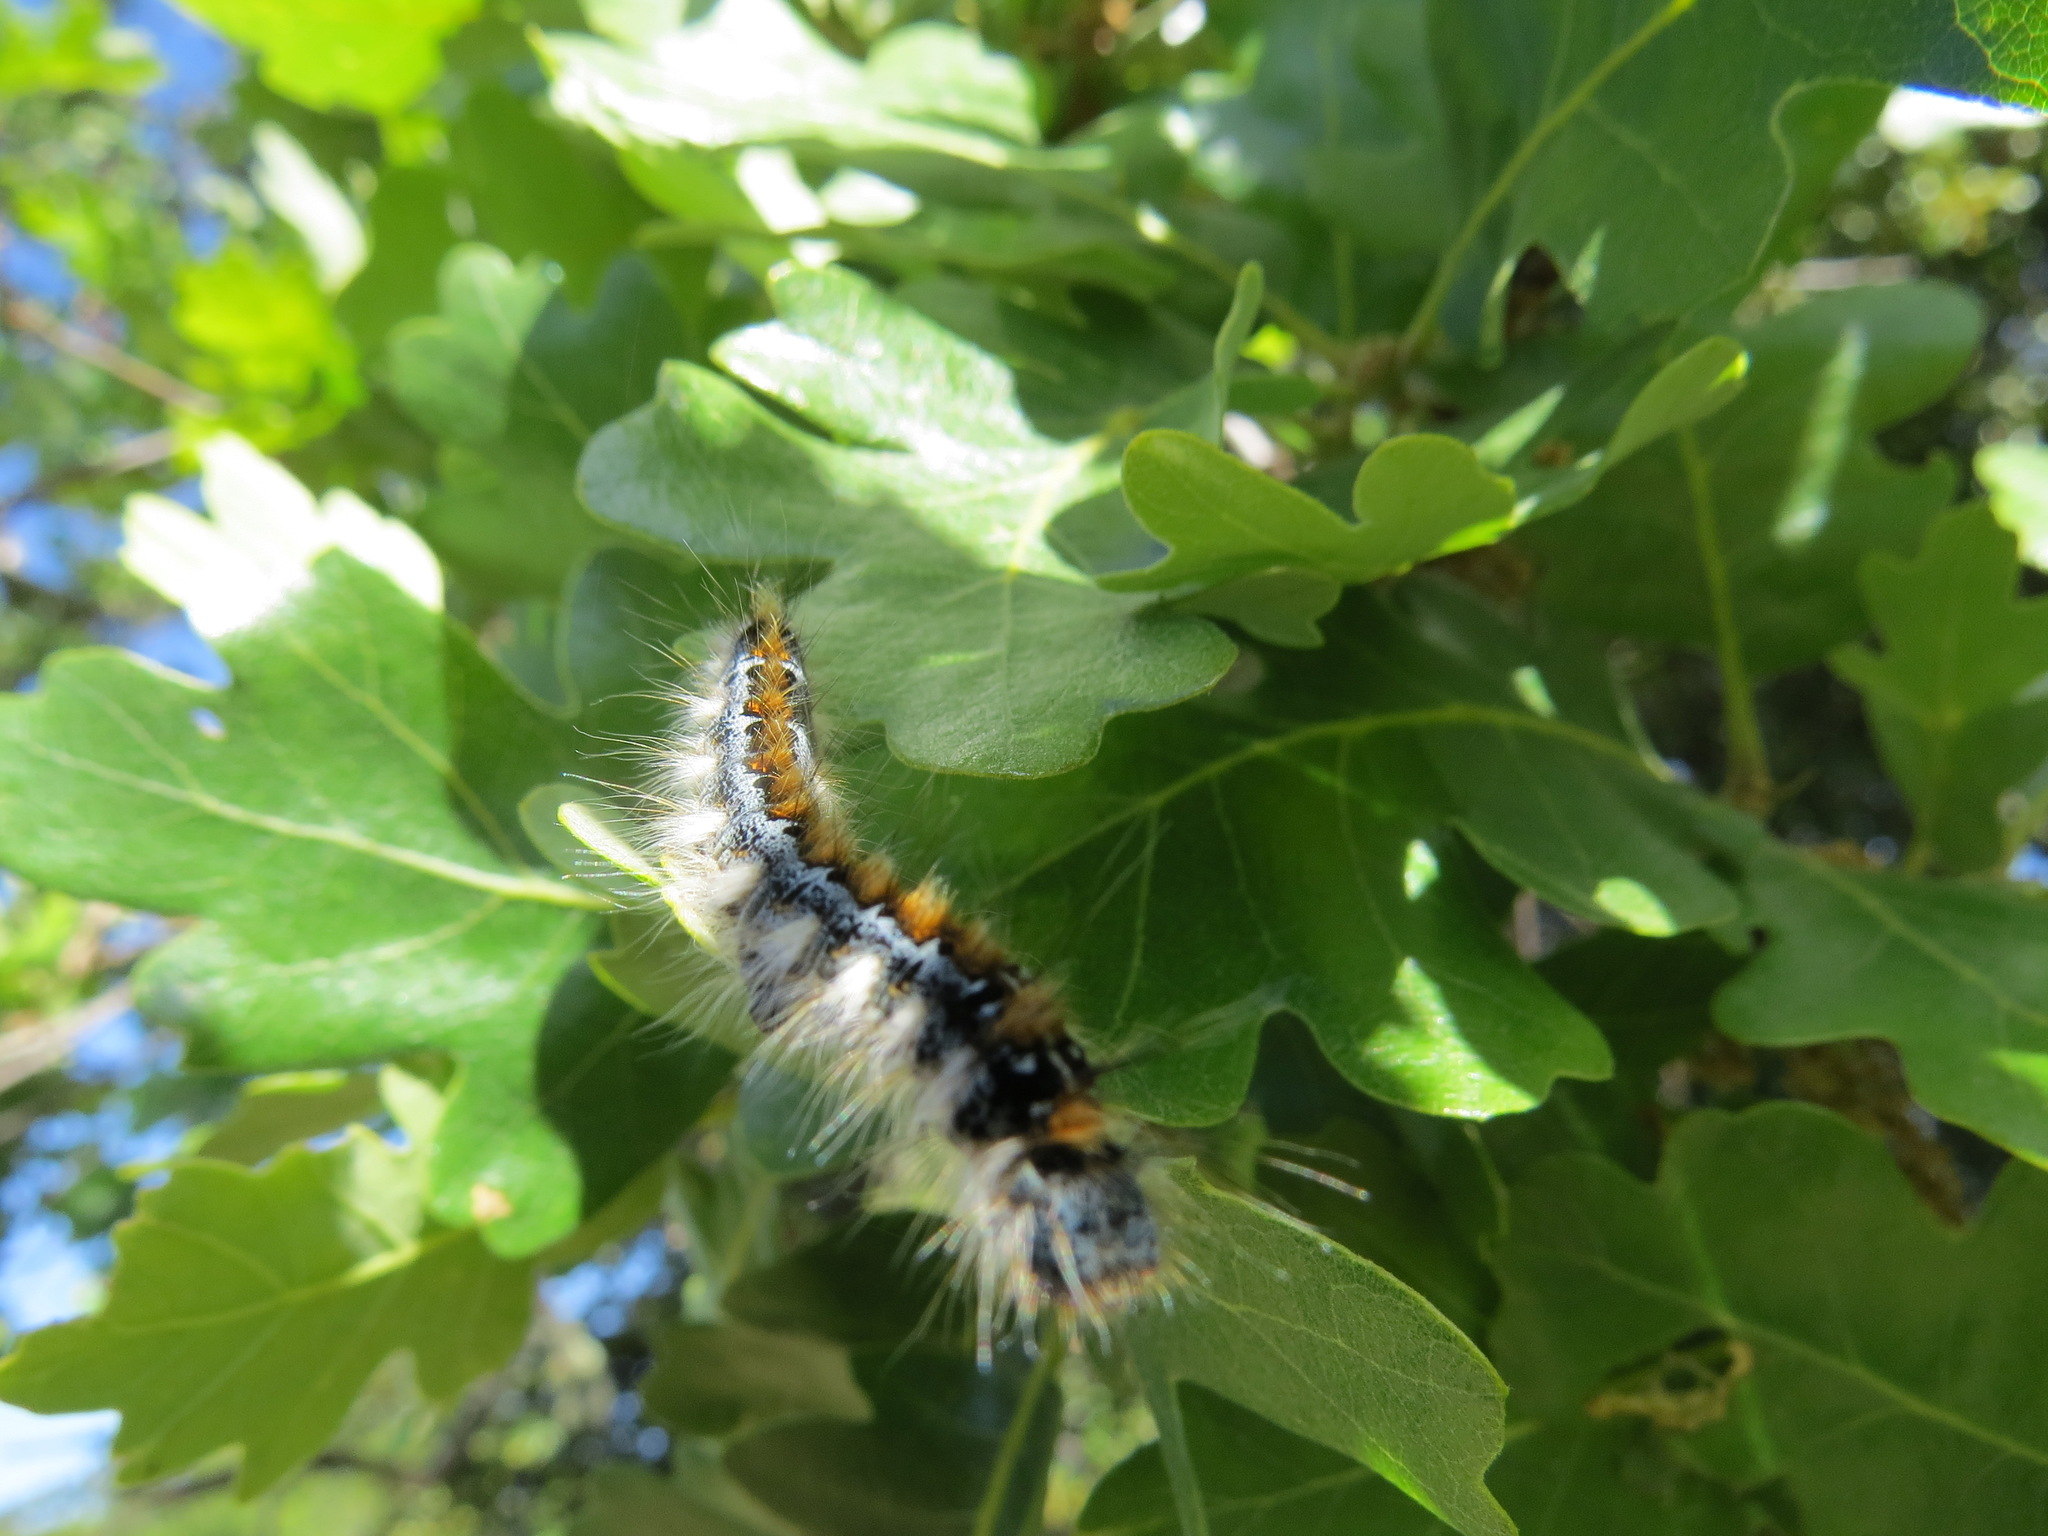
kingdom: Animalia
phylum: Arthropoda
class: Insecta
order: Lepidoptera
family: Lasiocampidae
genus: Malacosoma
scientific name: Malacosoma constricta
